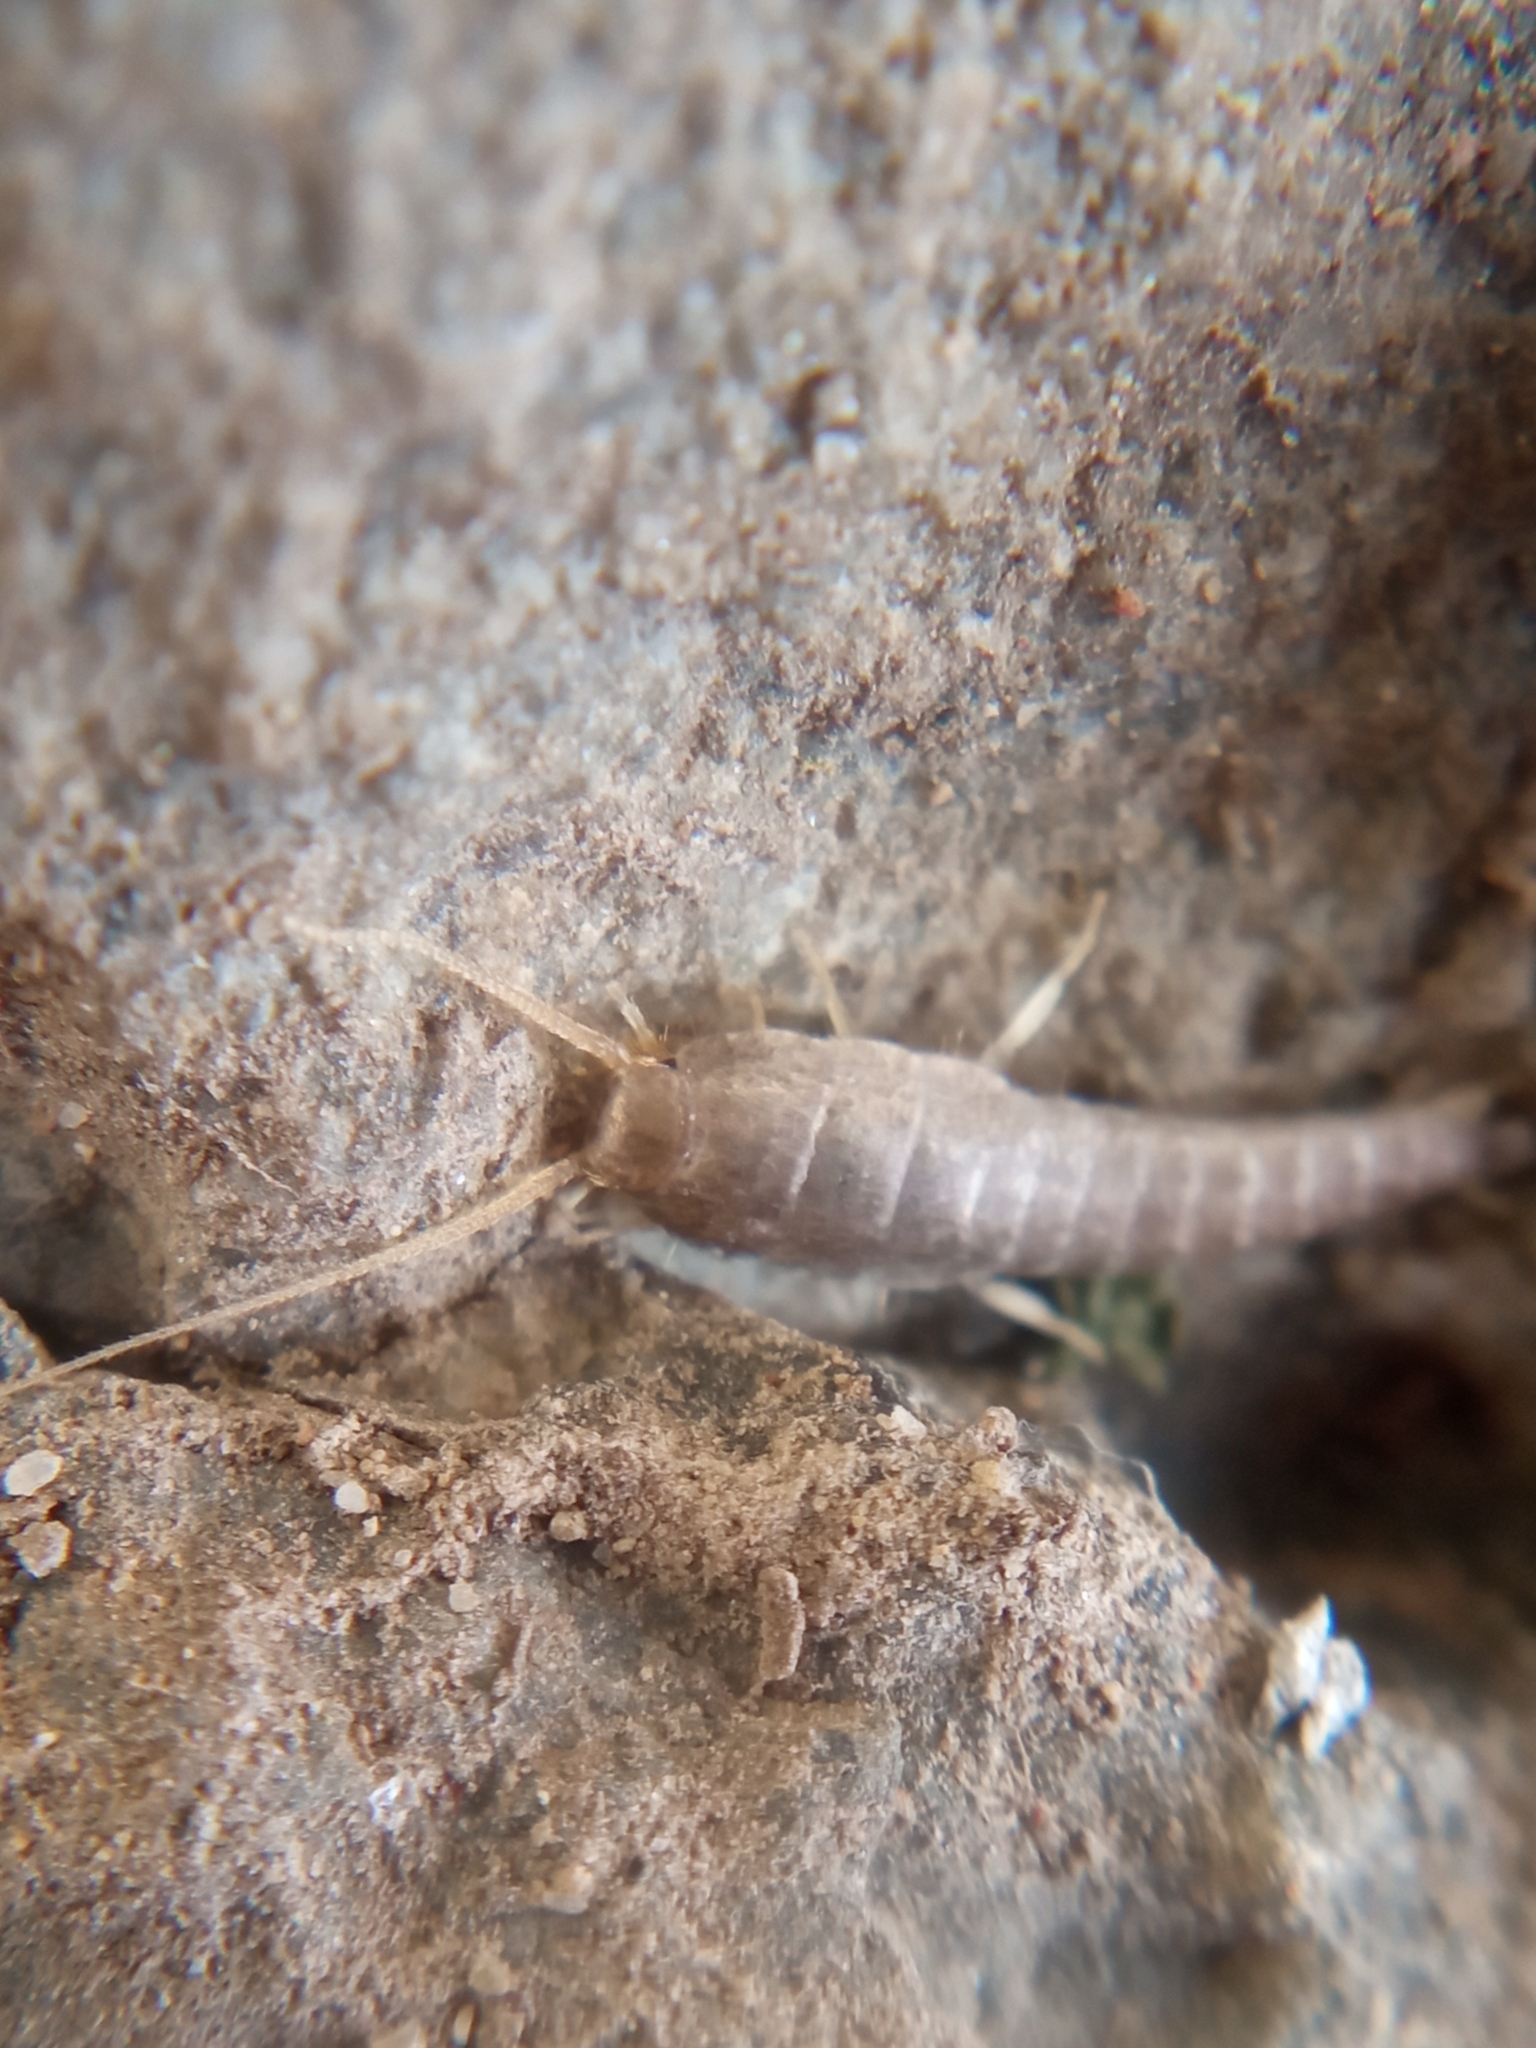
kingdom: Animalia
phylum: Arthropoda
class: Insecta
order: Zygentoma
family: Lepismatidae
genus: Lepisma
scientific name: Lepisma saccharinum
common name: Silverfish
